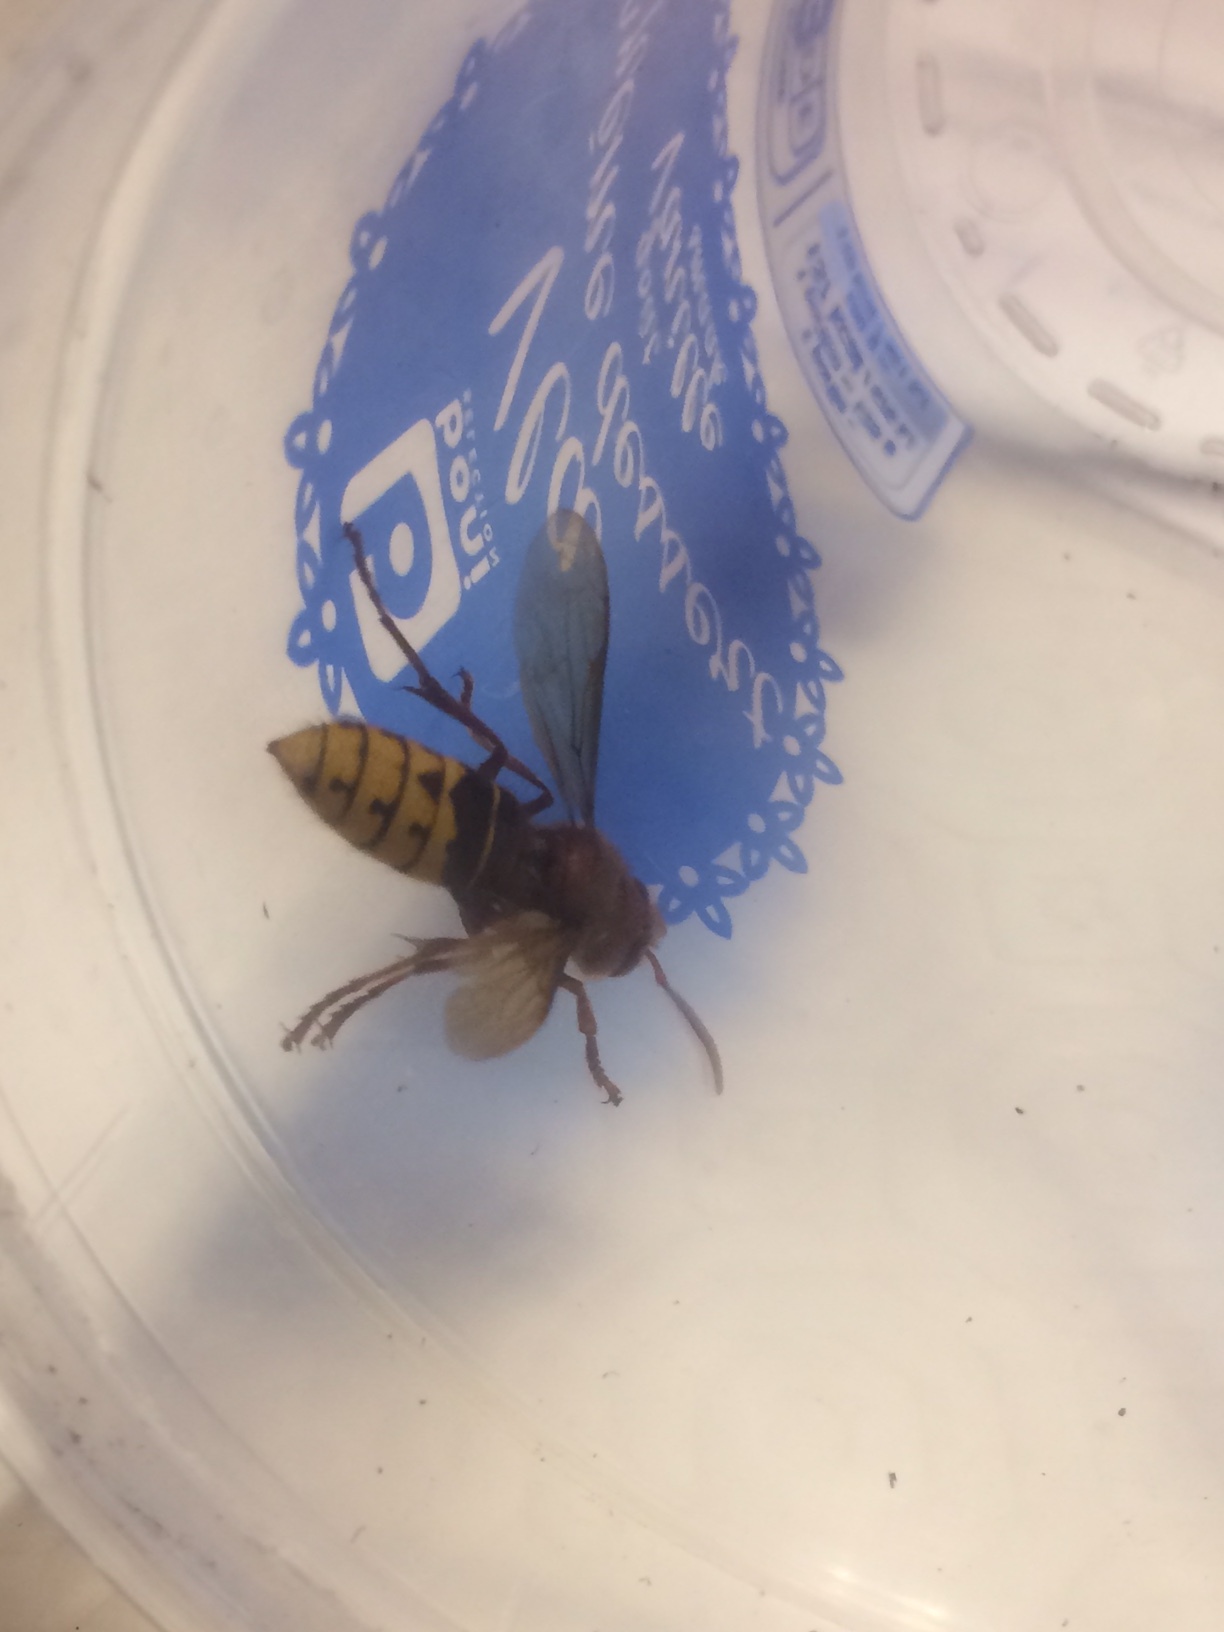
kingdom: Animalia
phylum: Arthropoda
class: Insecta
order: Hymenoptera
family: Vespidae
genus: Vespa
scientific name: Vespa crabro
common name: Hornet
